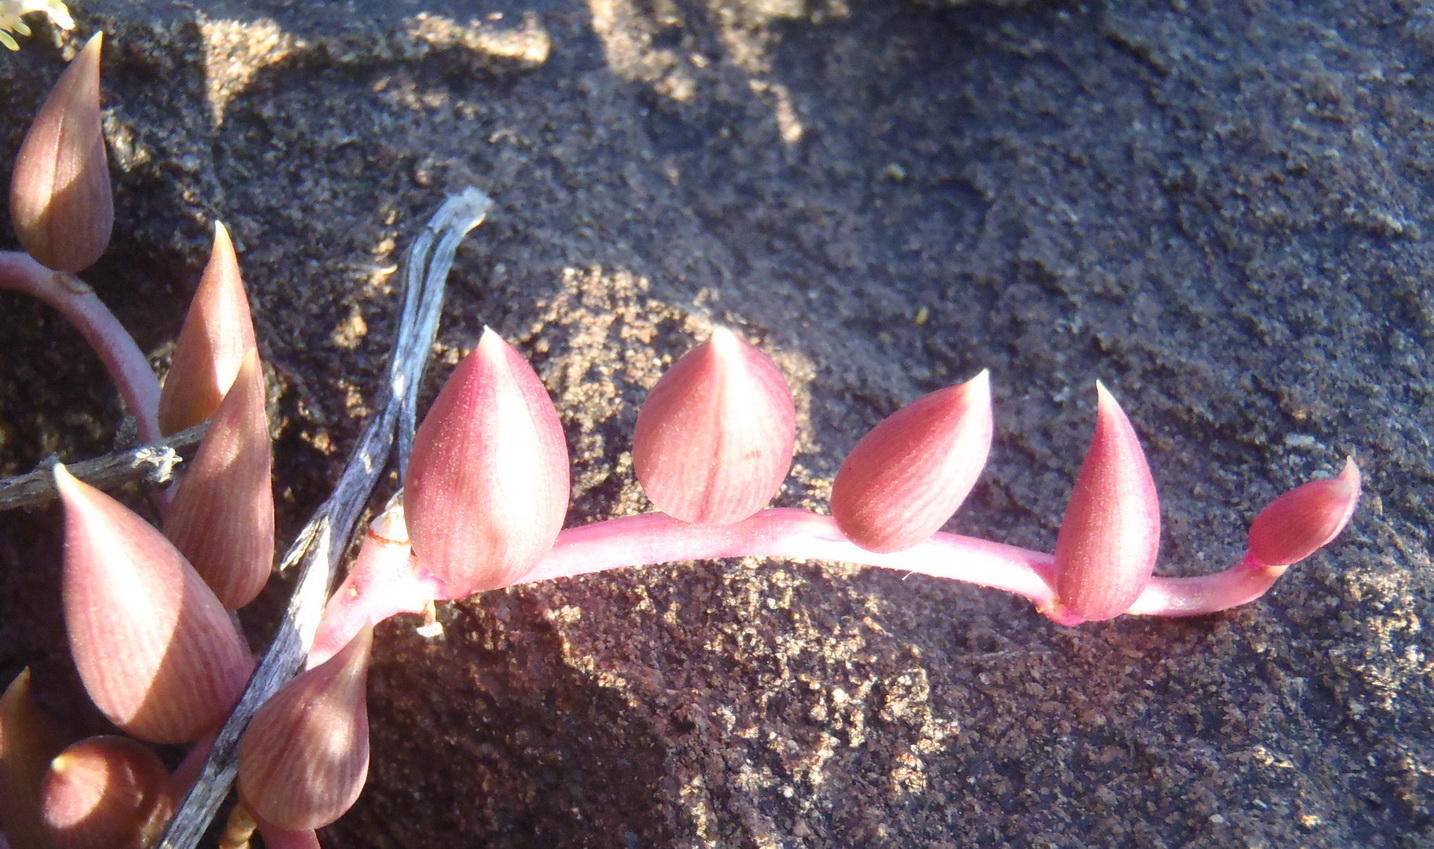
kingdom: Plantae
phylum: Tracheophyta
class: Magnoliopsida
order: Asterales
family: Asteraceae
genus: Curio
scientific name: Curio radicans
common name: Creeping-berry
